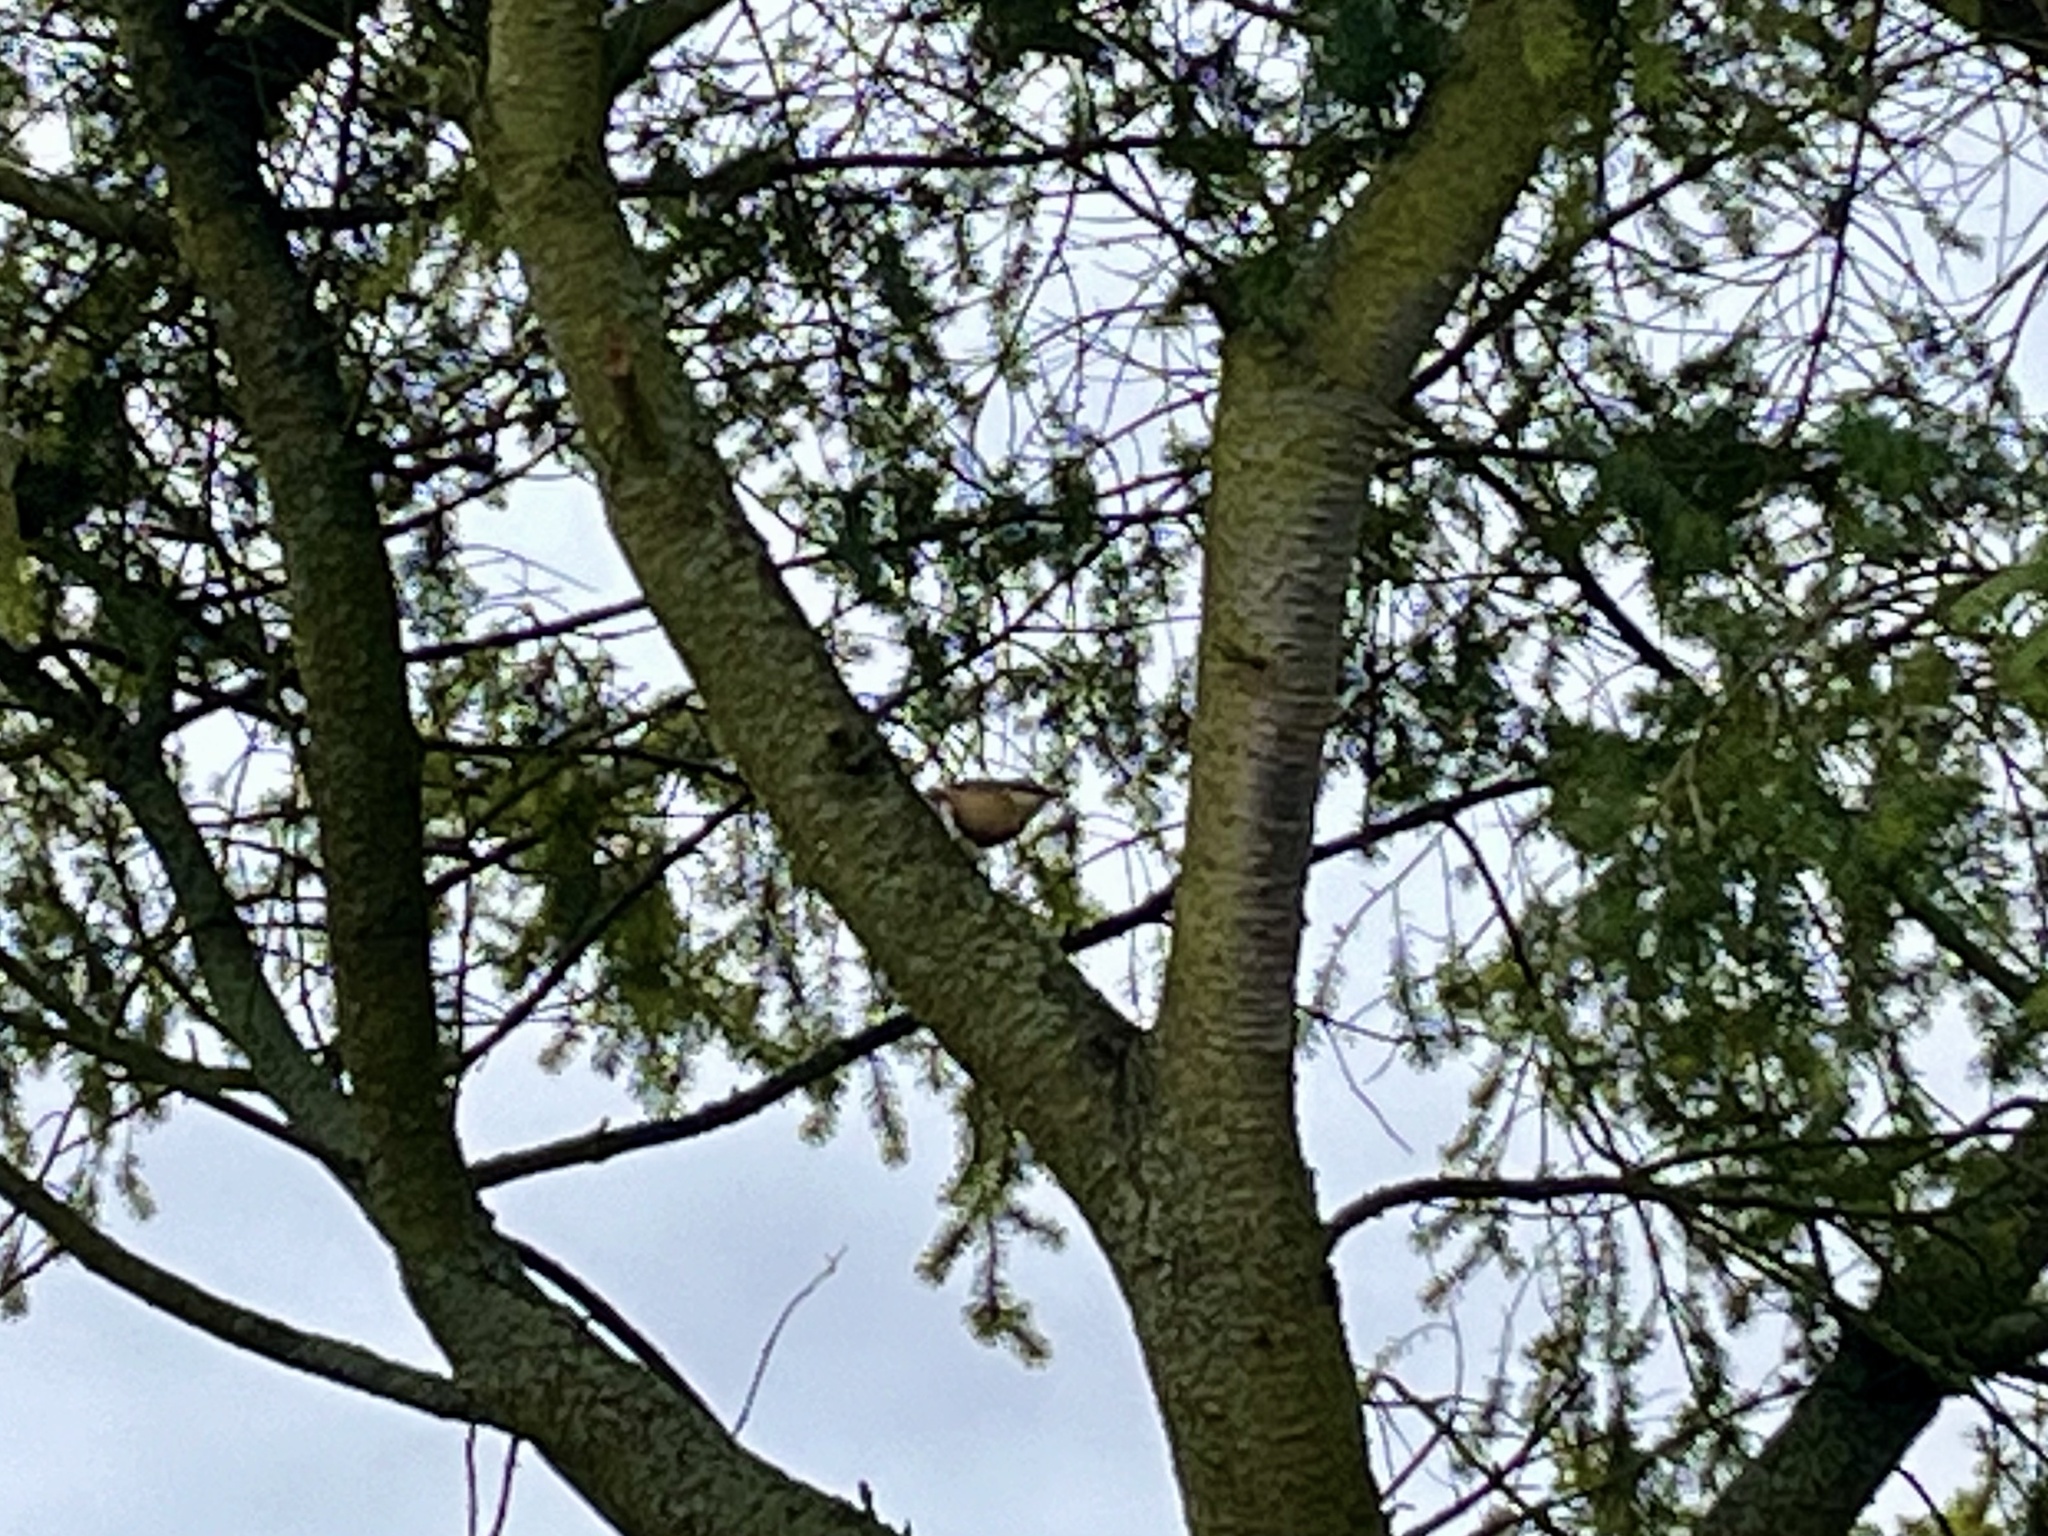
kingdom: Animalia
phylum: Chordata
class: Aves
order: Passeriformes
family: Sittidae
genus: Sitta
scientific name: Sitta europaea
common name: Eurasian nuthatch
